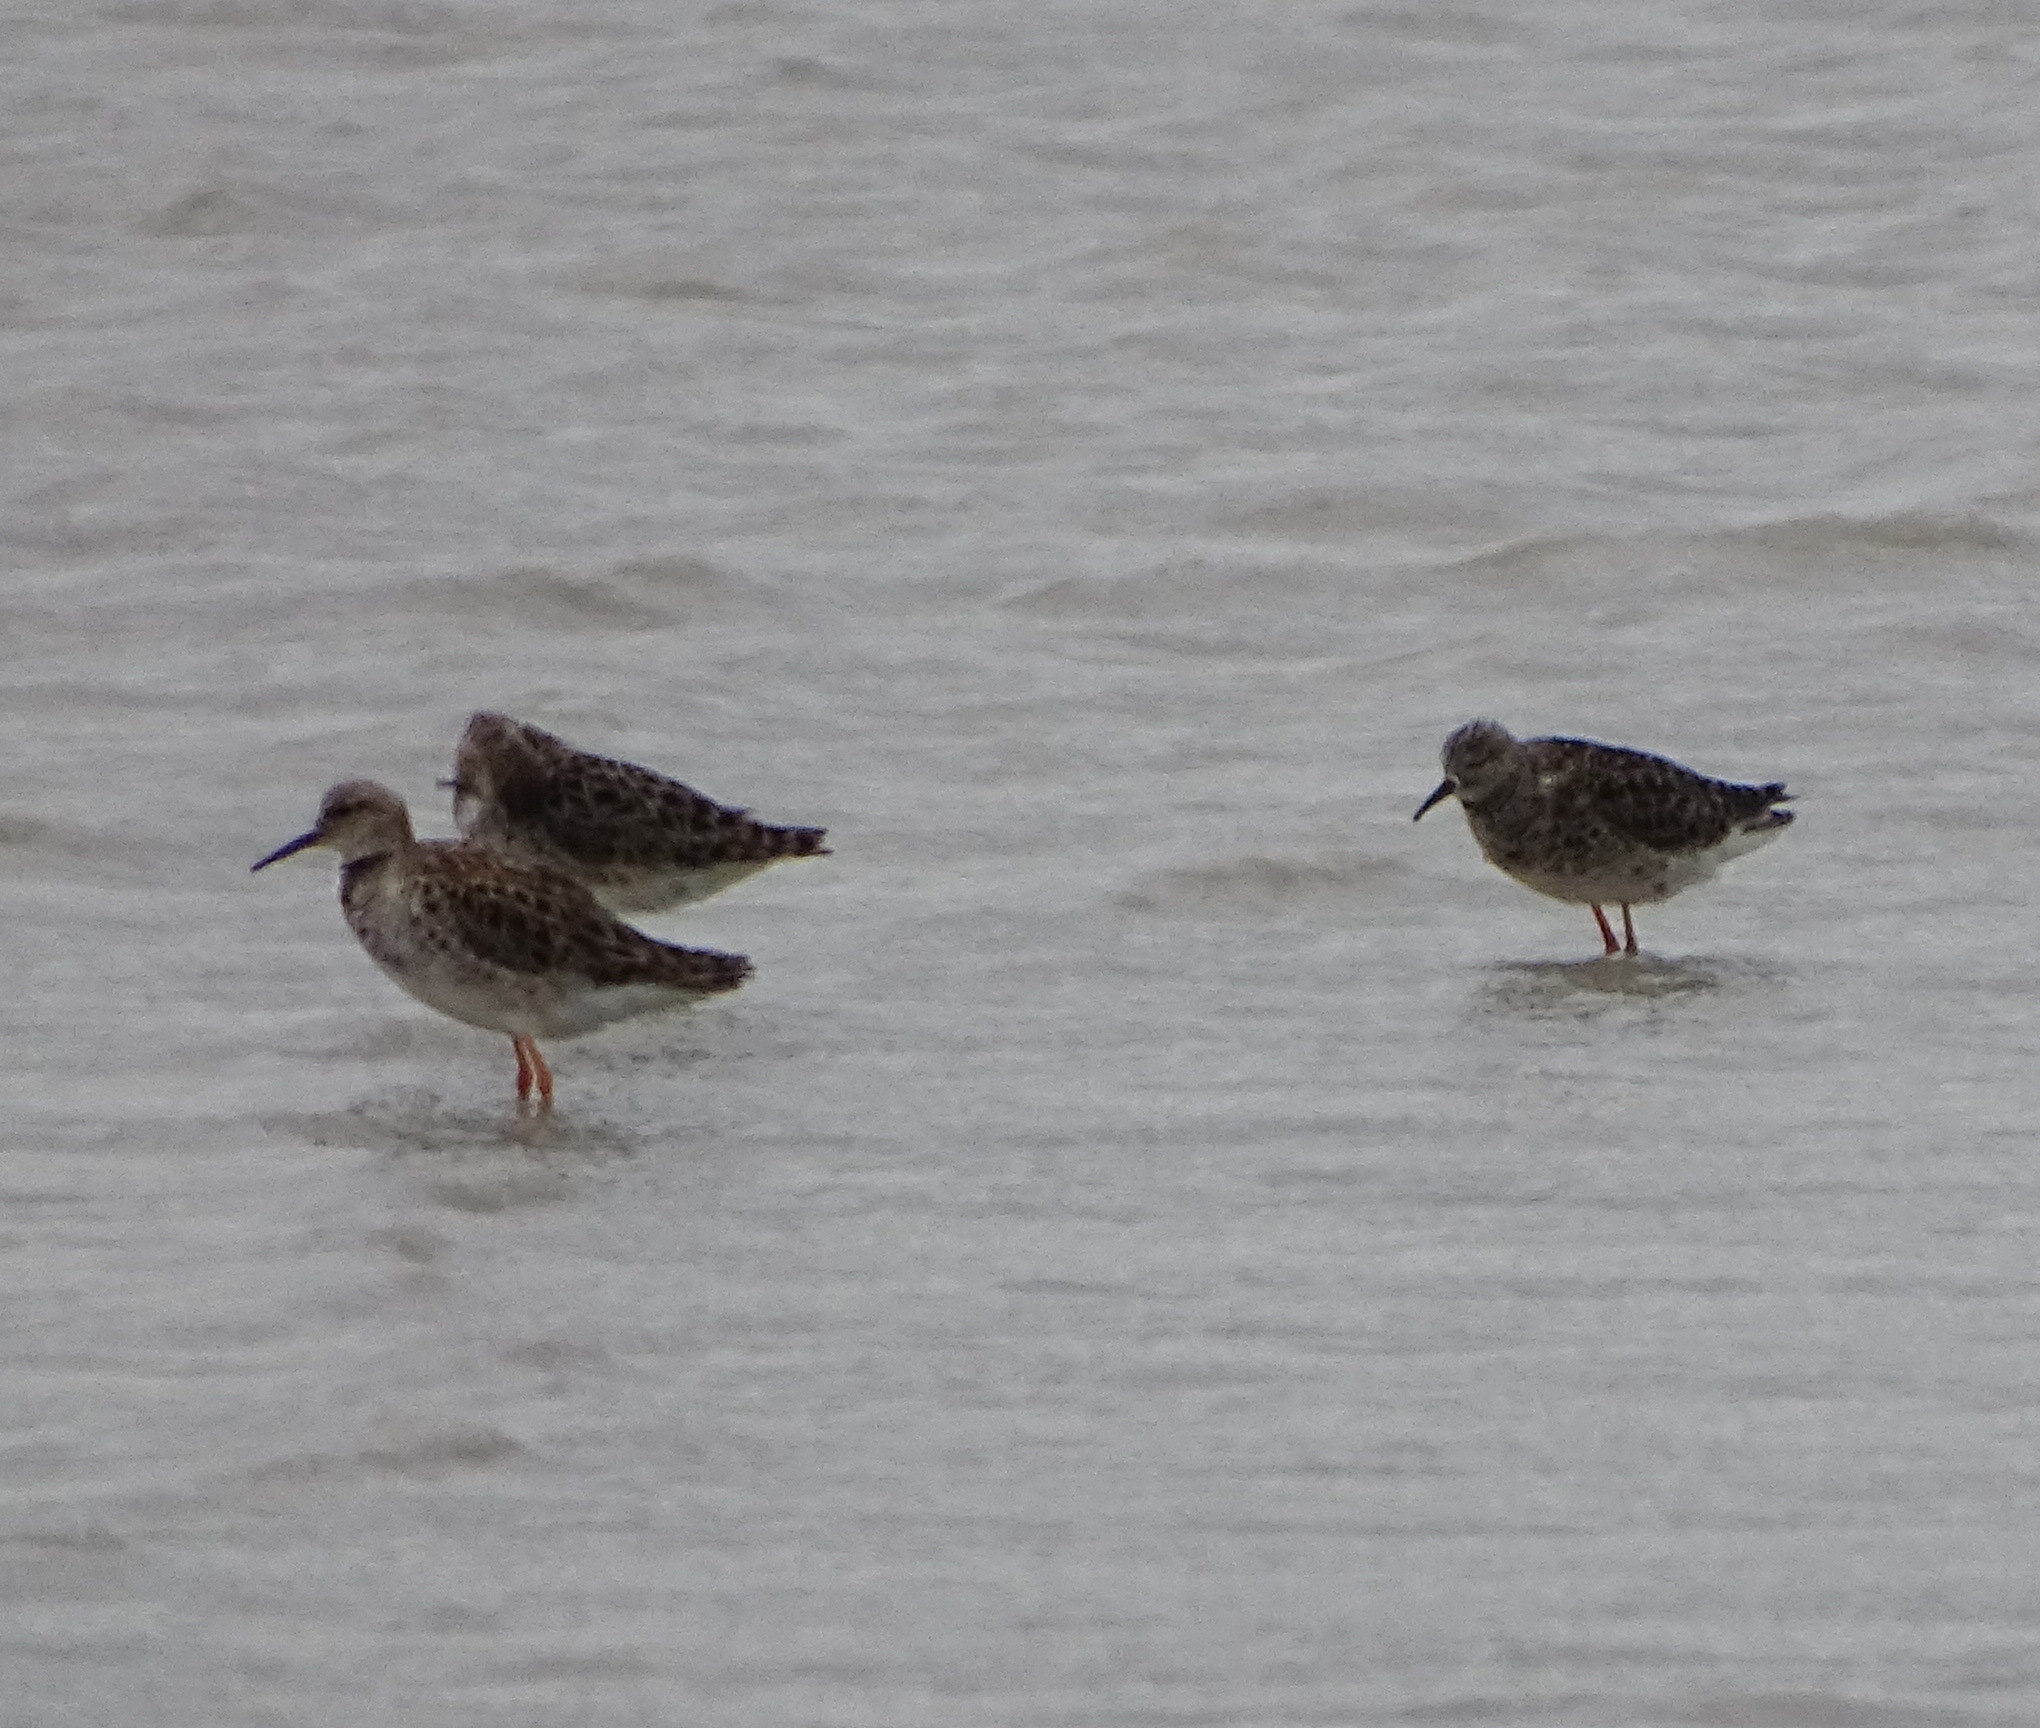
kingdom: Animalia
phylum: Chordata
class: Aves
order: Charadriiformes
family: Scolopacidae
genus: Calidris
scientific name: Calidris pugnax
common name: Ruff
